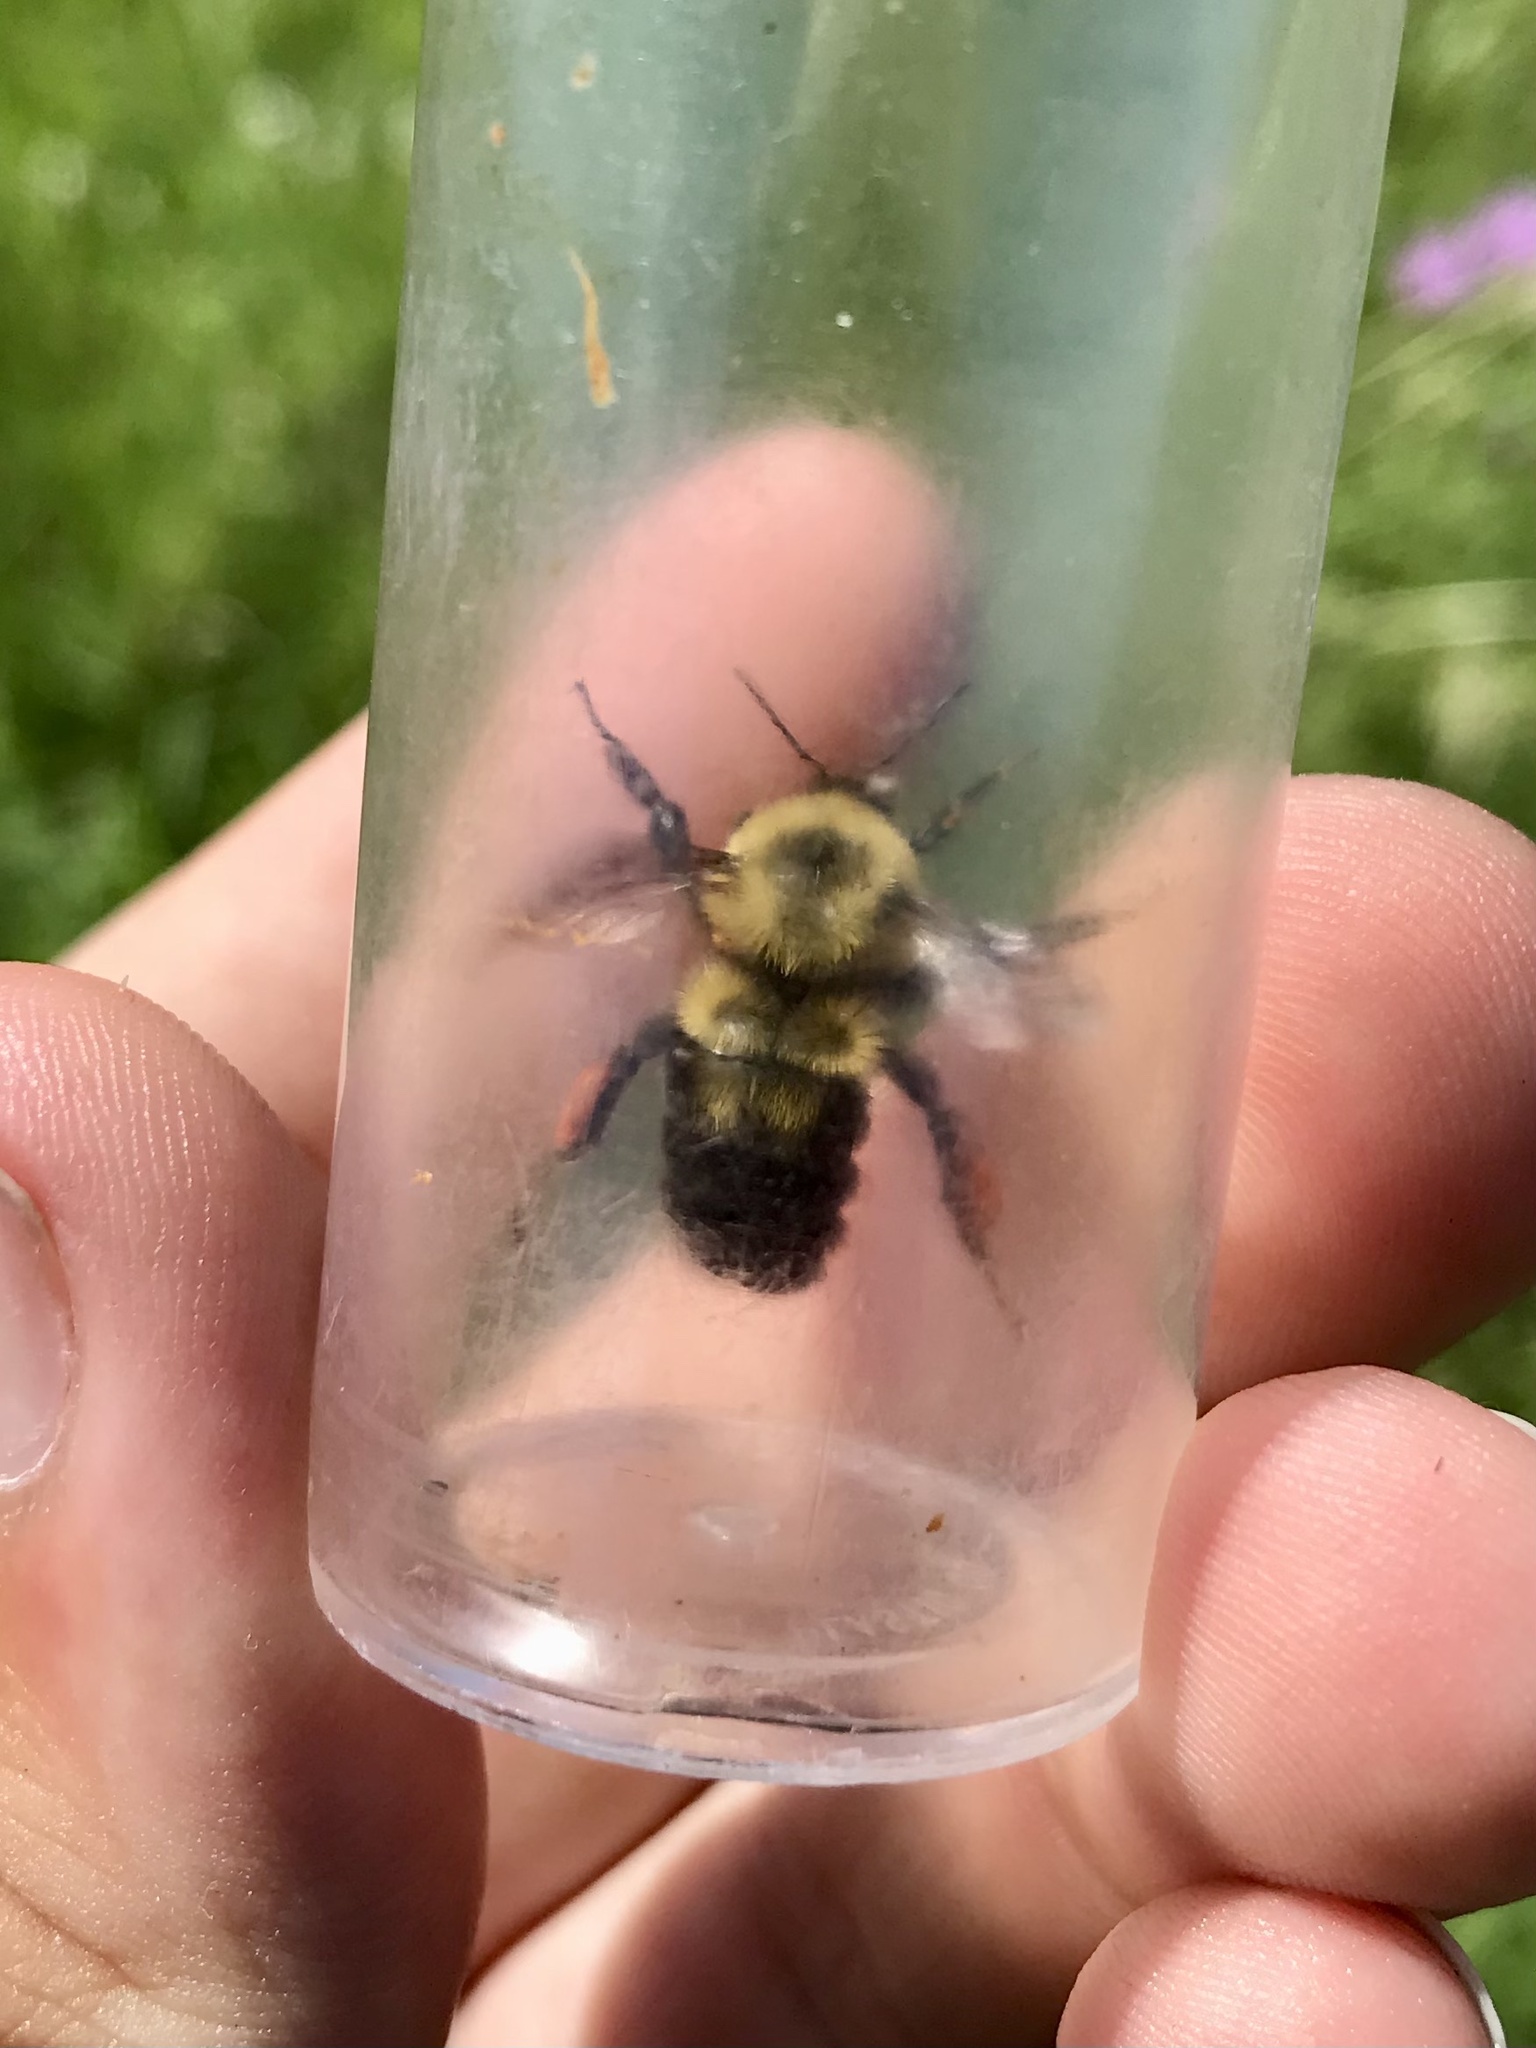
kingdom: Animalia
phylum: Arthropoda
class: Insecta
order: Hymenoptera
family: Apidae
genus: Bombus
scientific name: Bombus bimaculatus
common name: Two-spotted bumble bee
